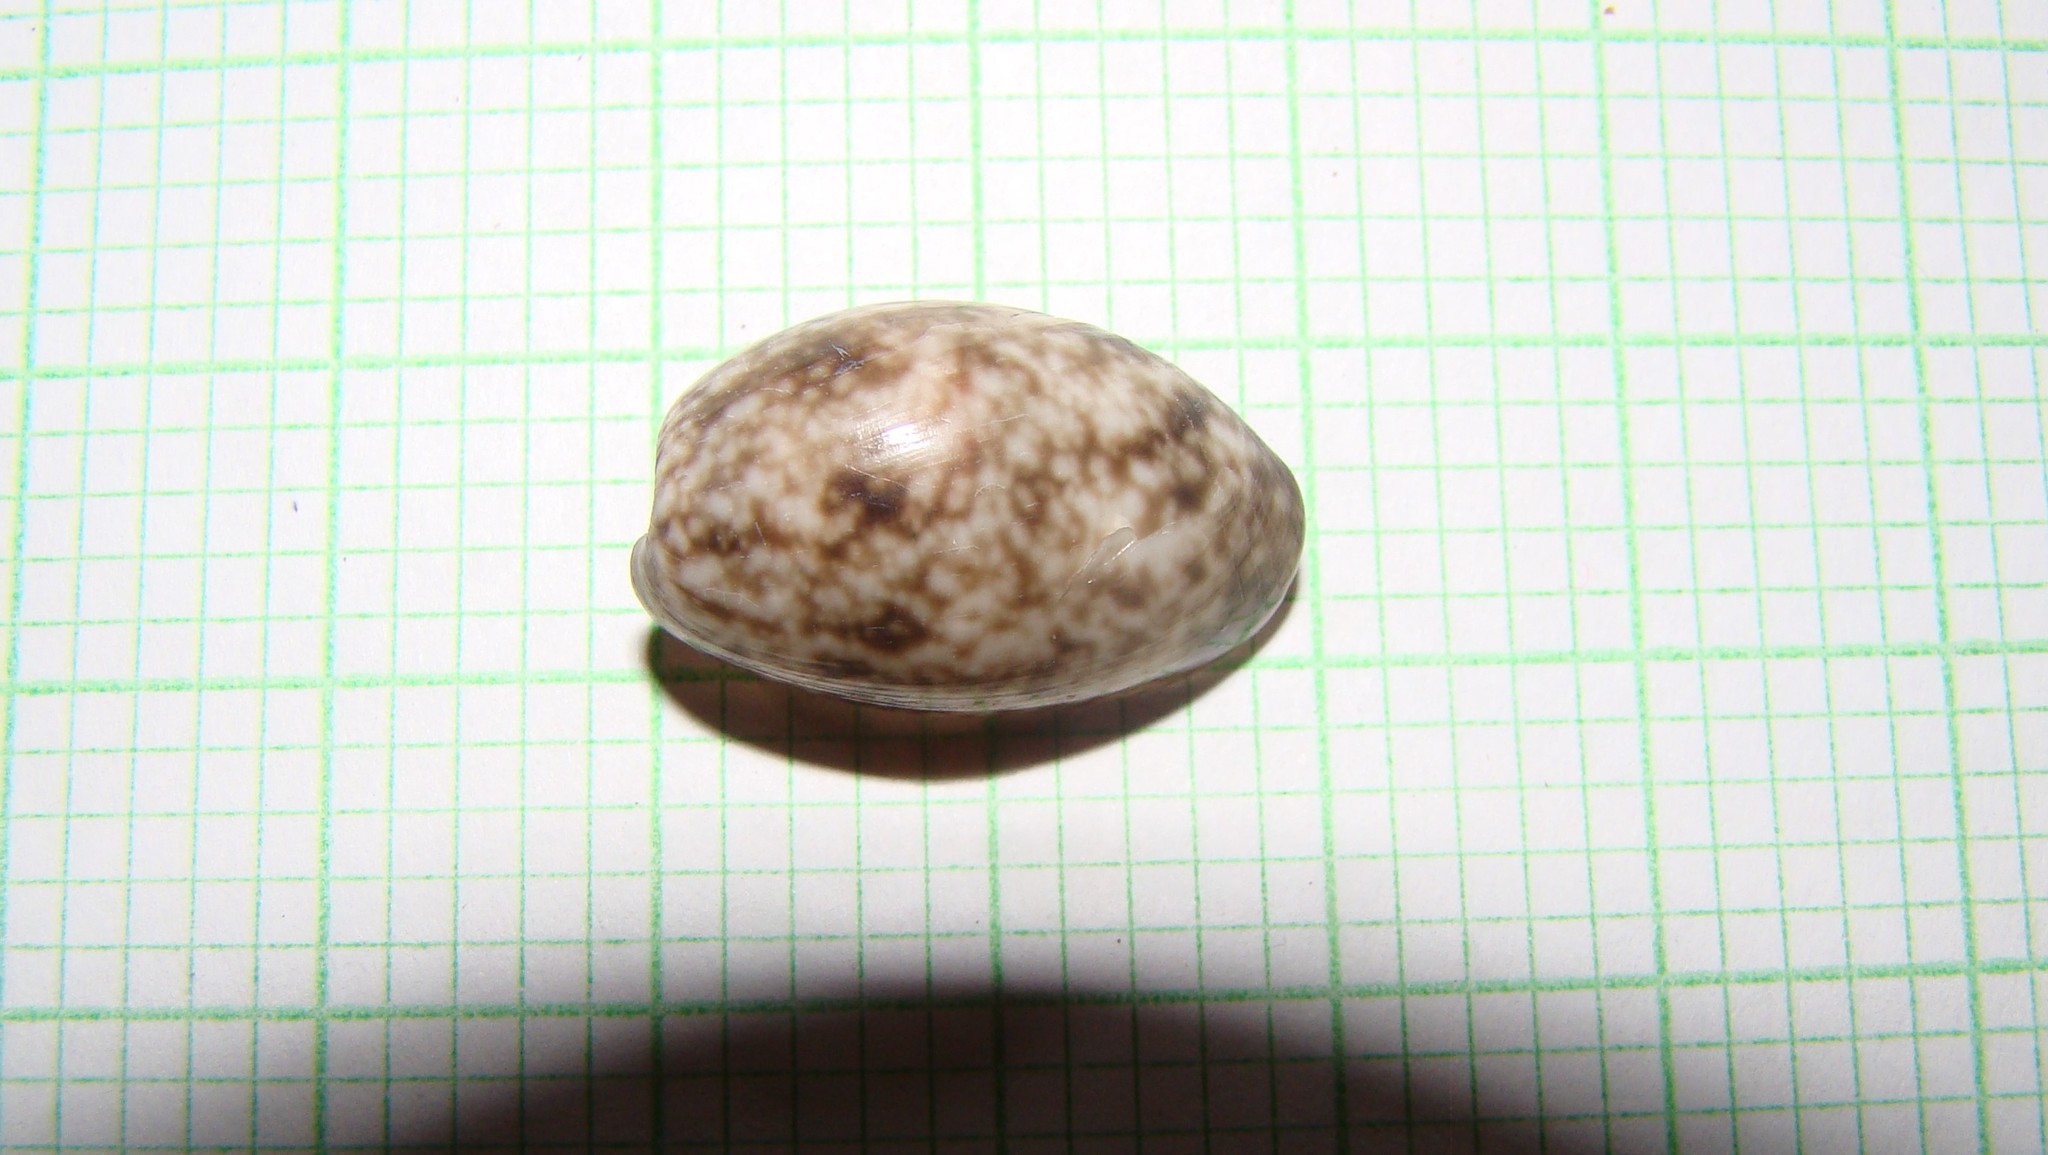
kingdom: Animalia
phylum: Mollusca
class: Gastropoda
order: Cephalaspidea
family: Bullidae
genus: Bulla
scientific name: Bulla quoyii
